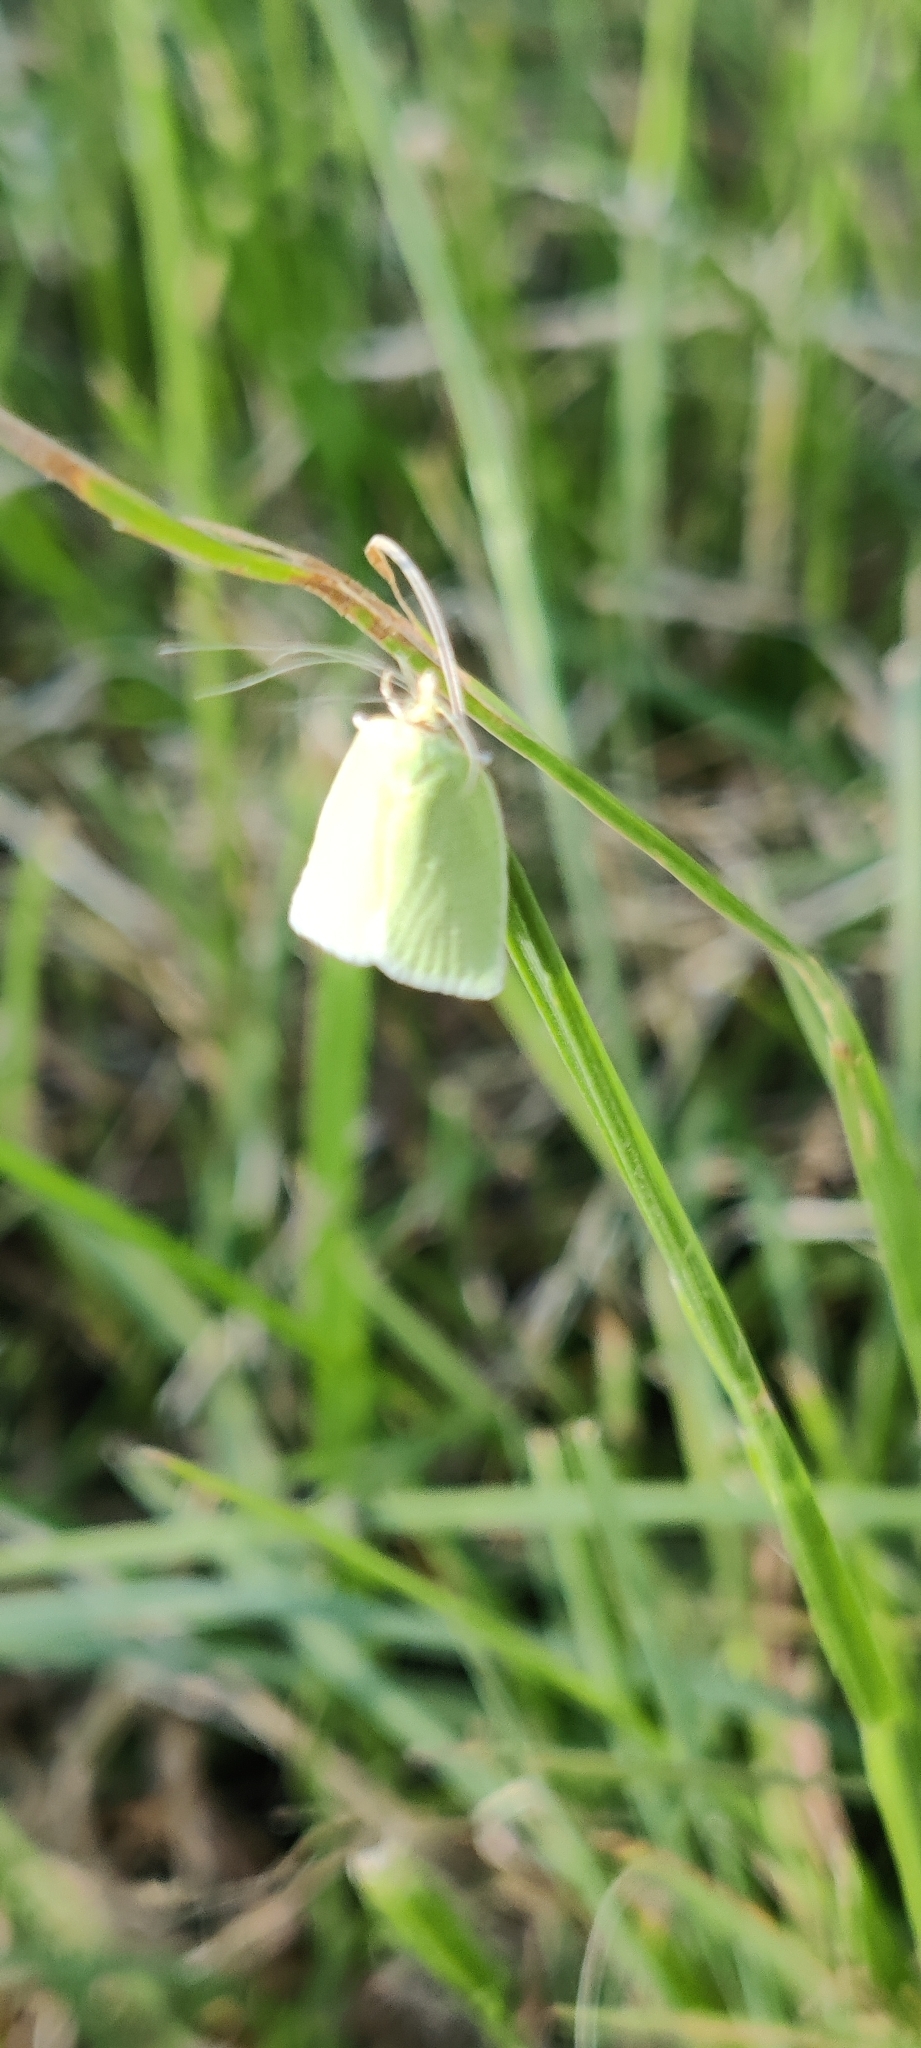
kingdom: Animalia
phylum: Arthropoda
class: Insecta
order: Lepidoptera
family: Tortricidae
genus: Tortrix
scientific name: Tortrix viridana
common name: Green oak tortrix
